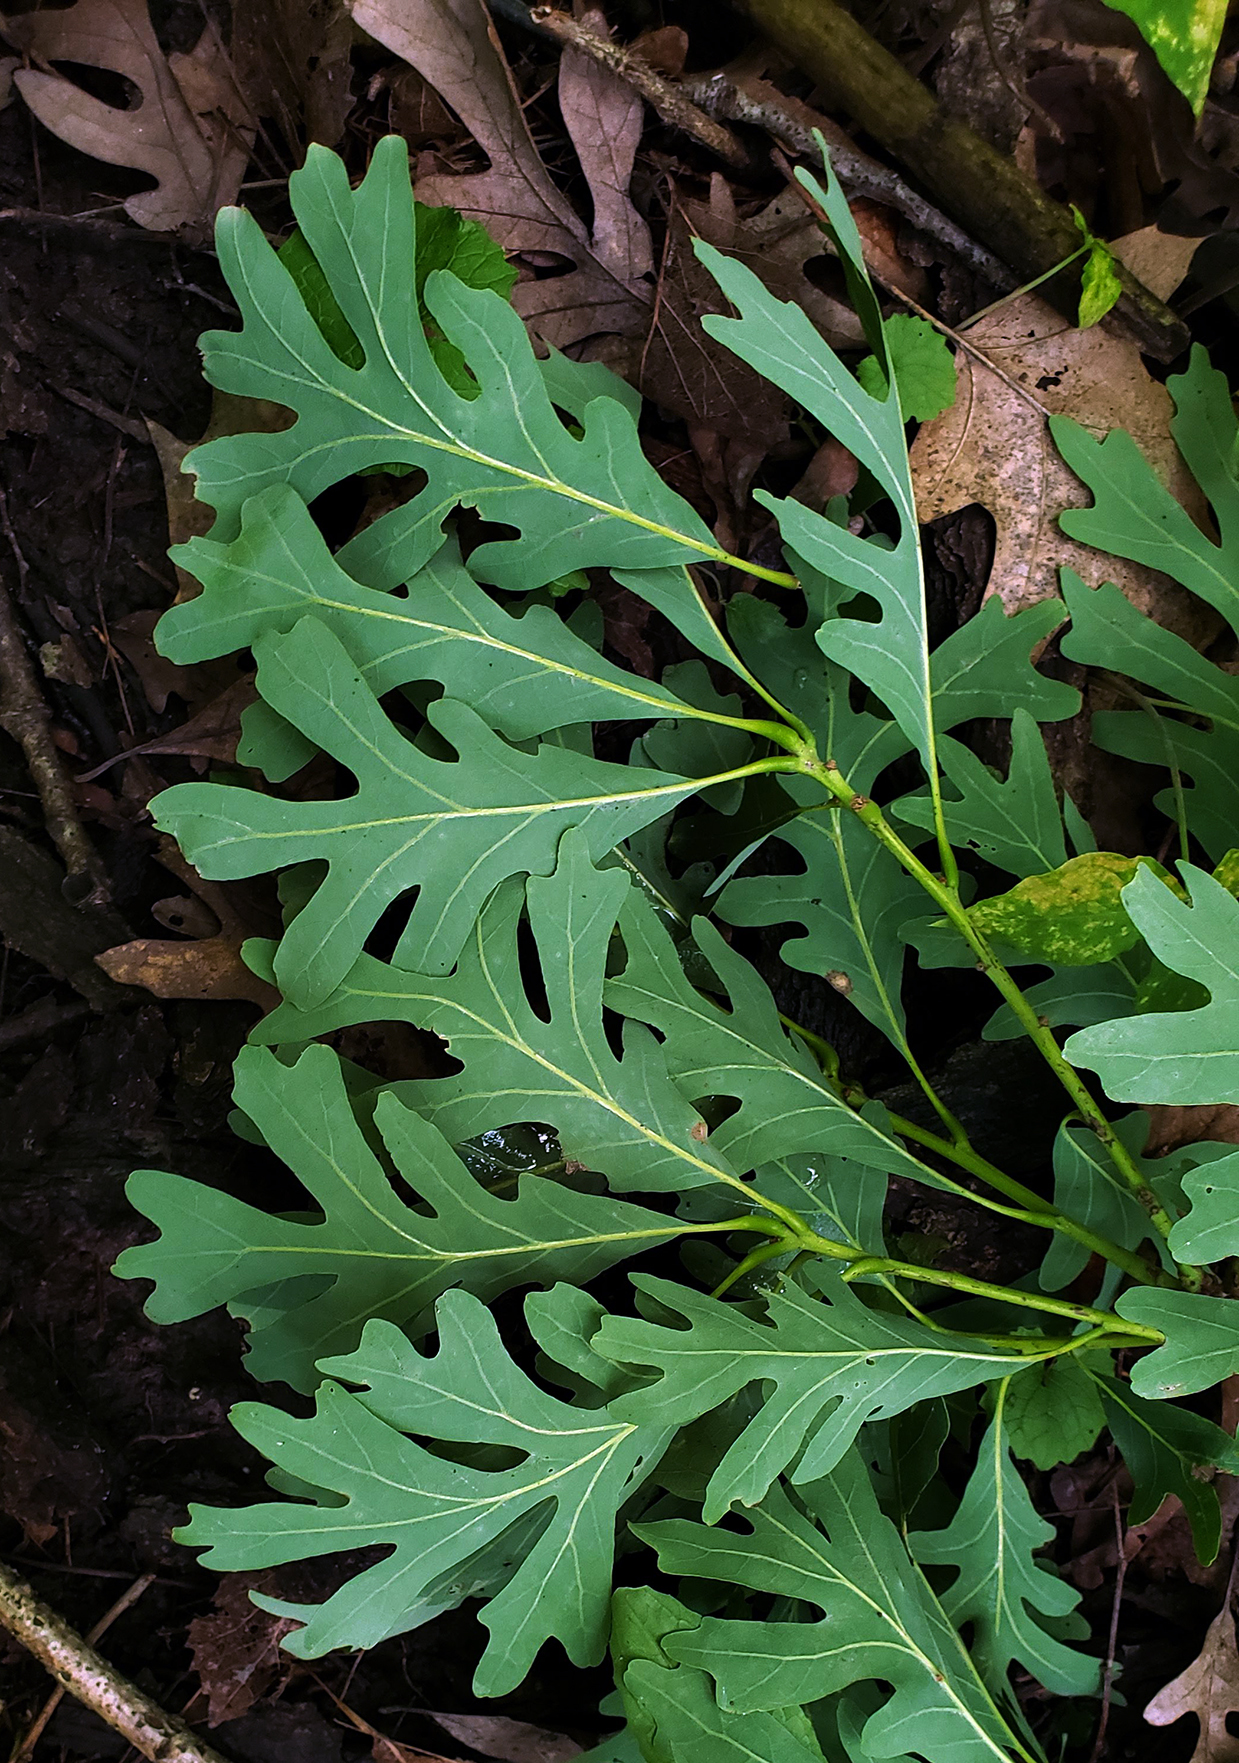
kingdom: Plantae
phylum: Tracheophyta
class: Magnoliopsida
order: Fagales
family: Fagaceae
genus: Quercus
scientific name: Quercus alba
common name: White oak
